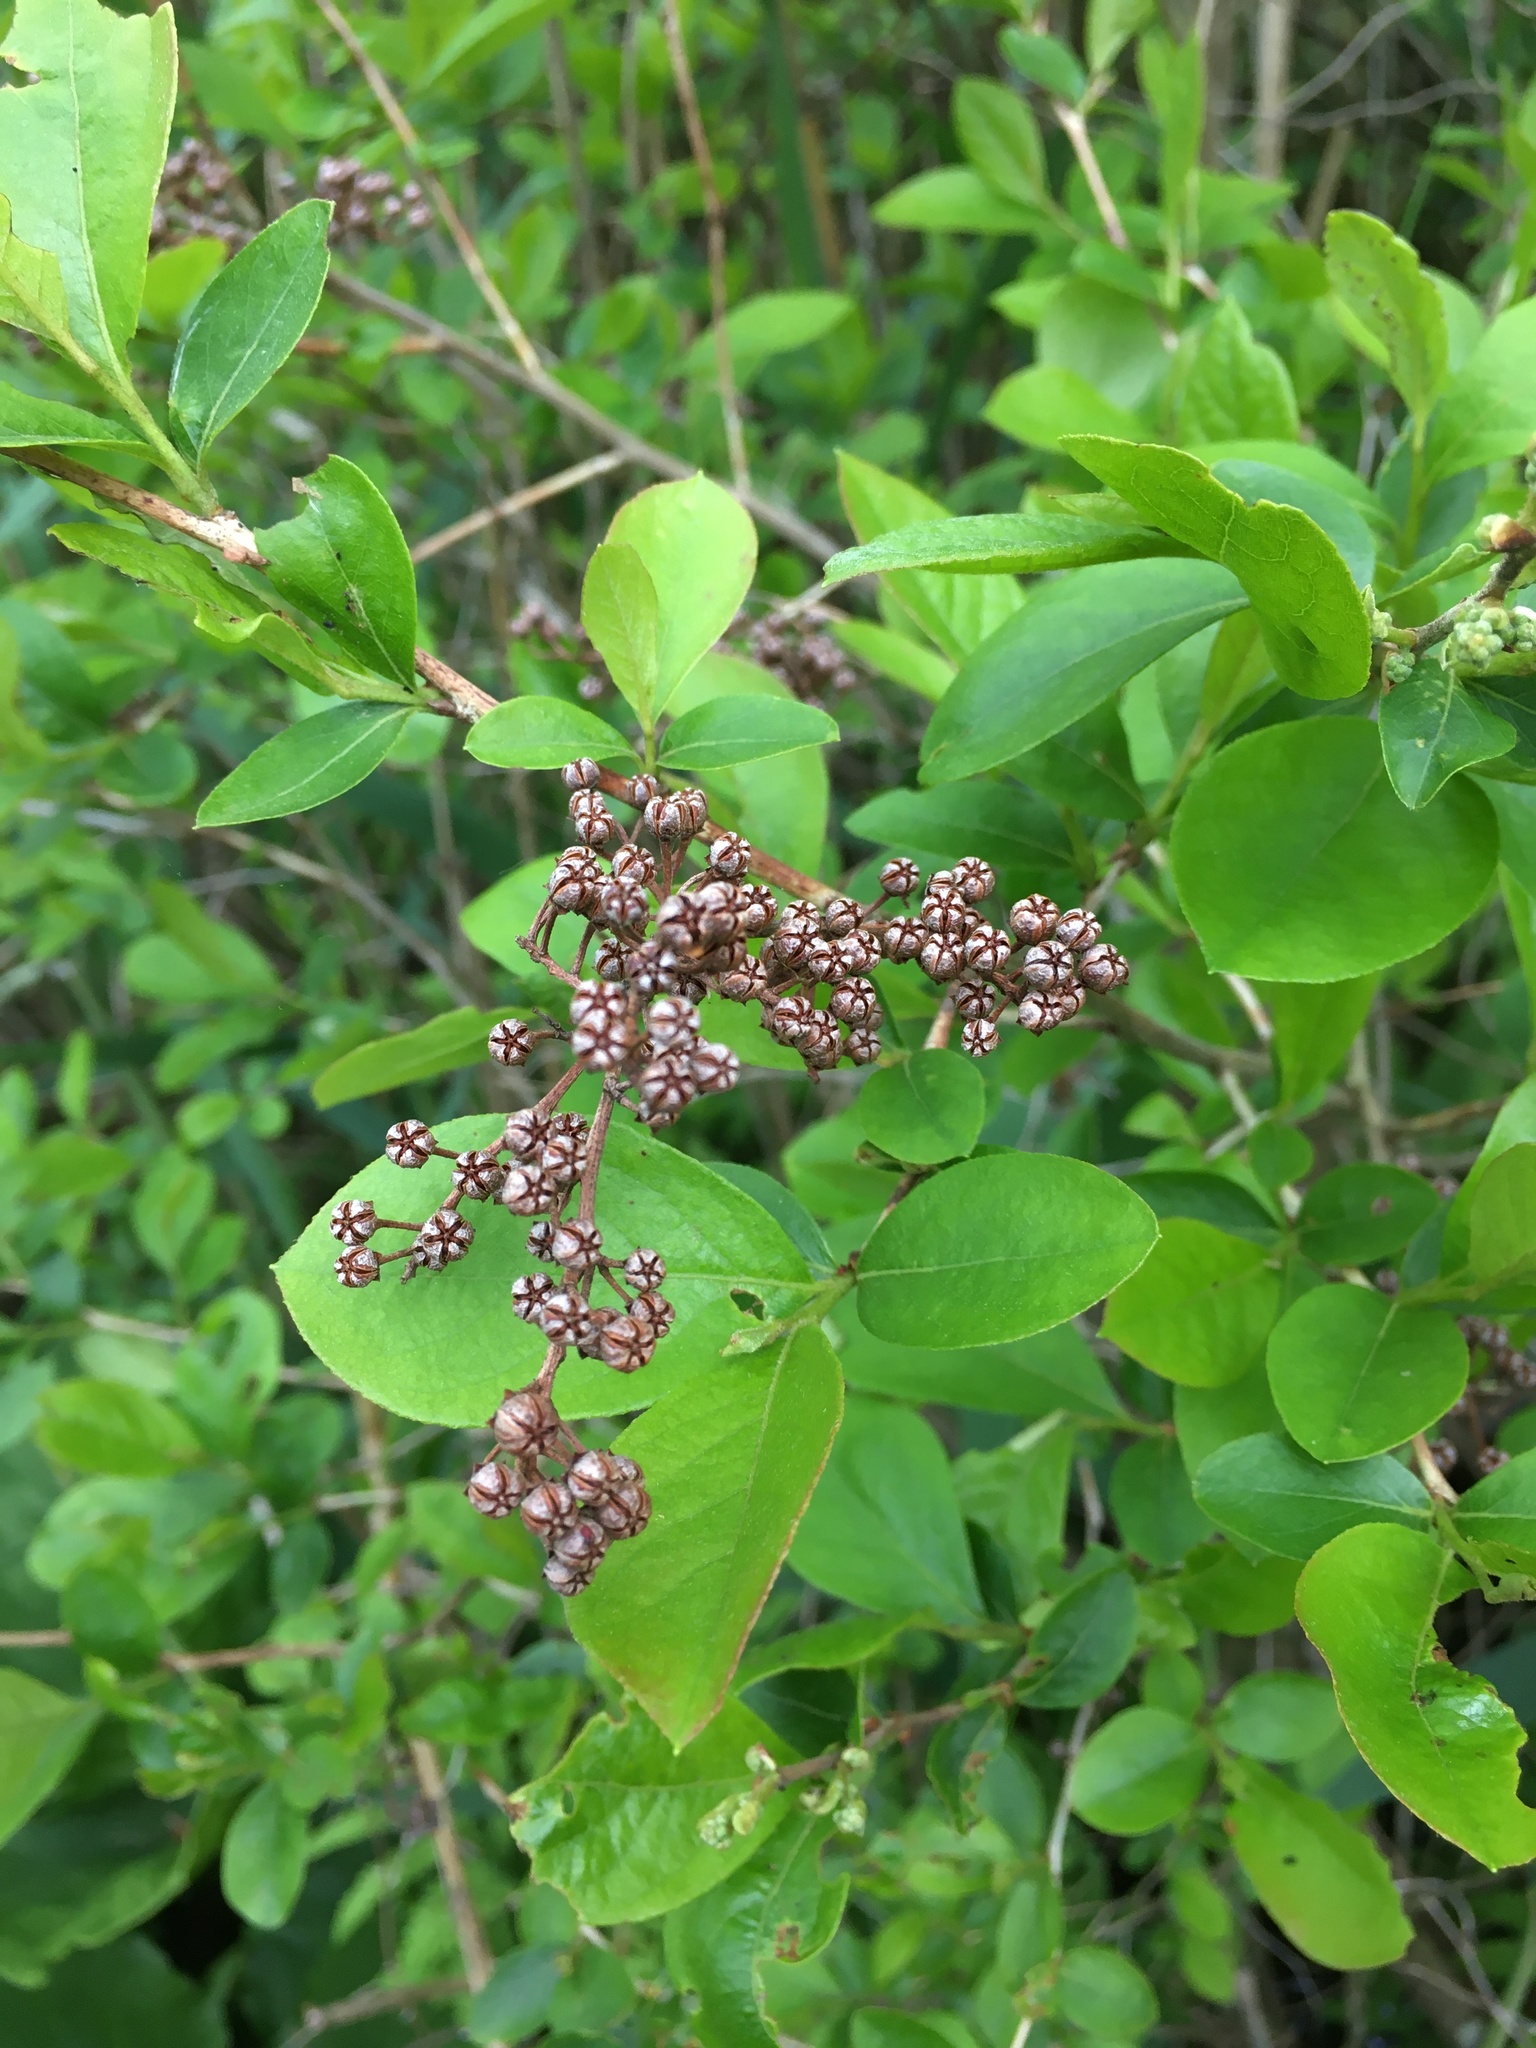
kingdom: Plantae
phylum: Tracheophyta
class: Magnoliopsida
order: Ericales
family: Ericaceae
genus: Lyonia
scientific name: Lyonia ligustrina
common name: Maleberry
